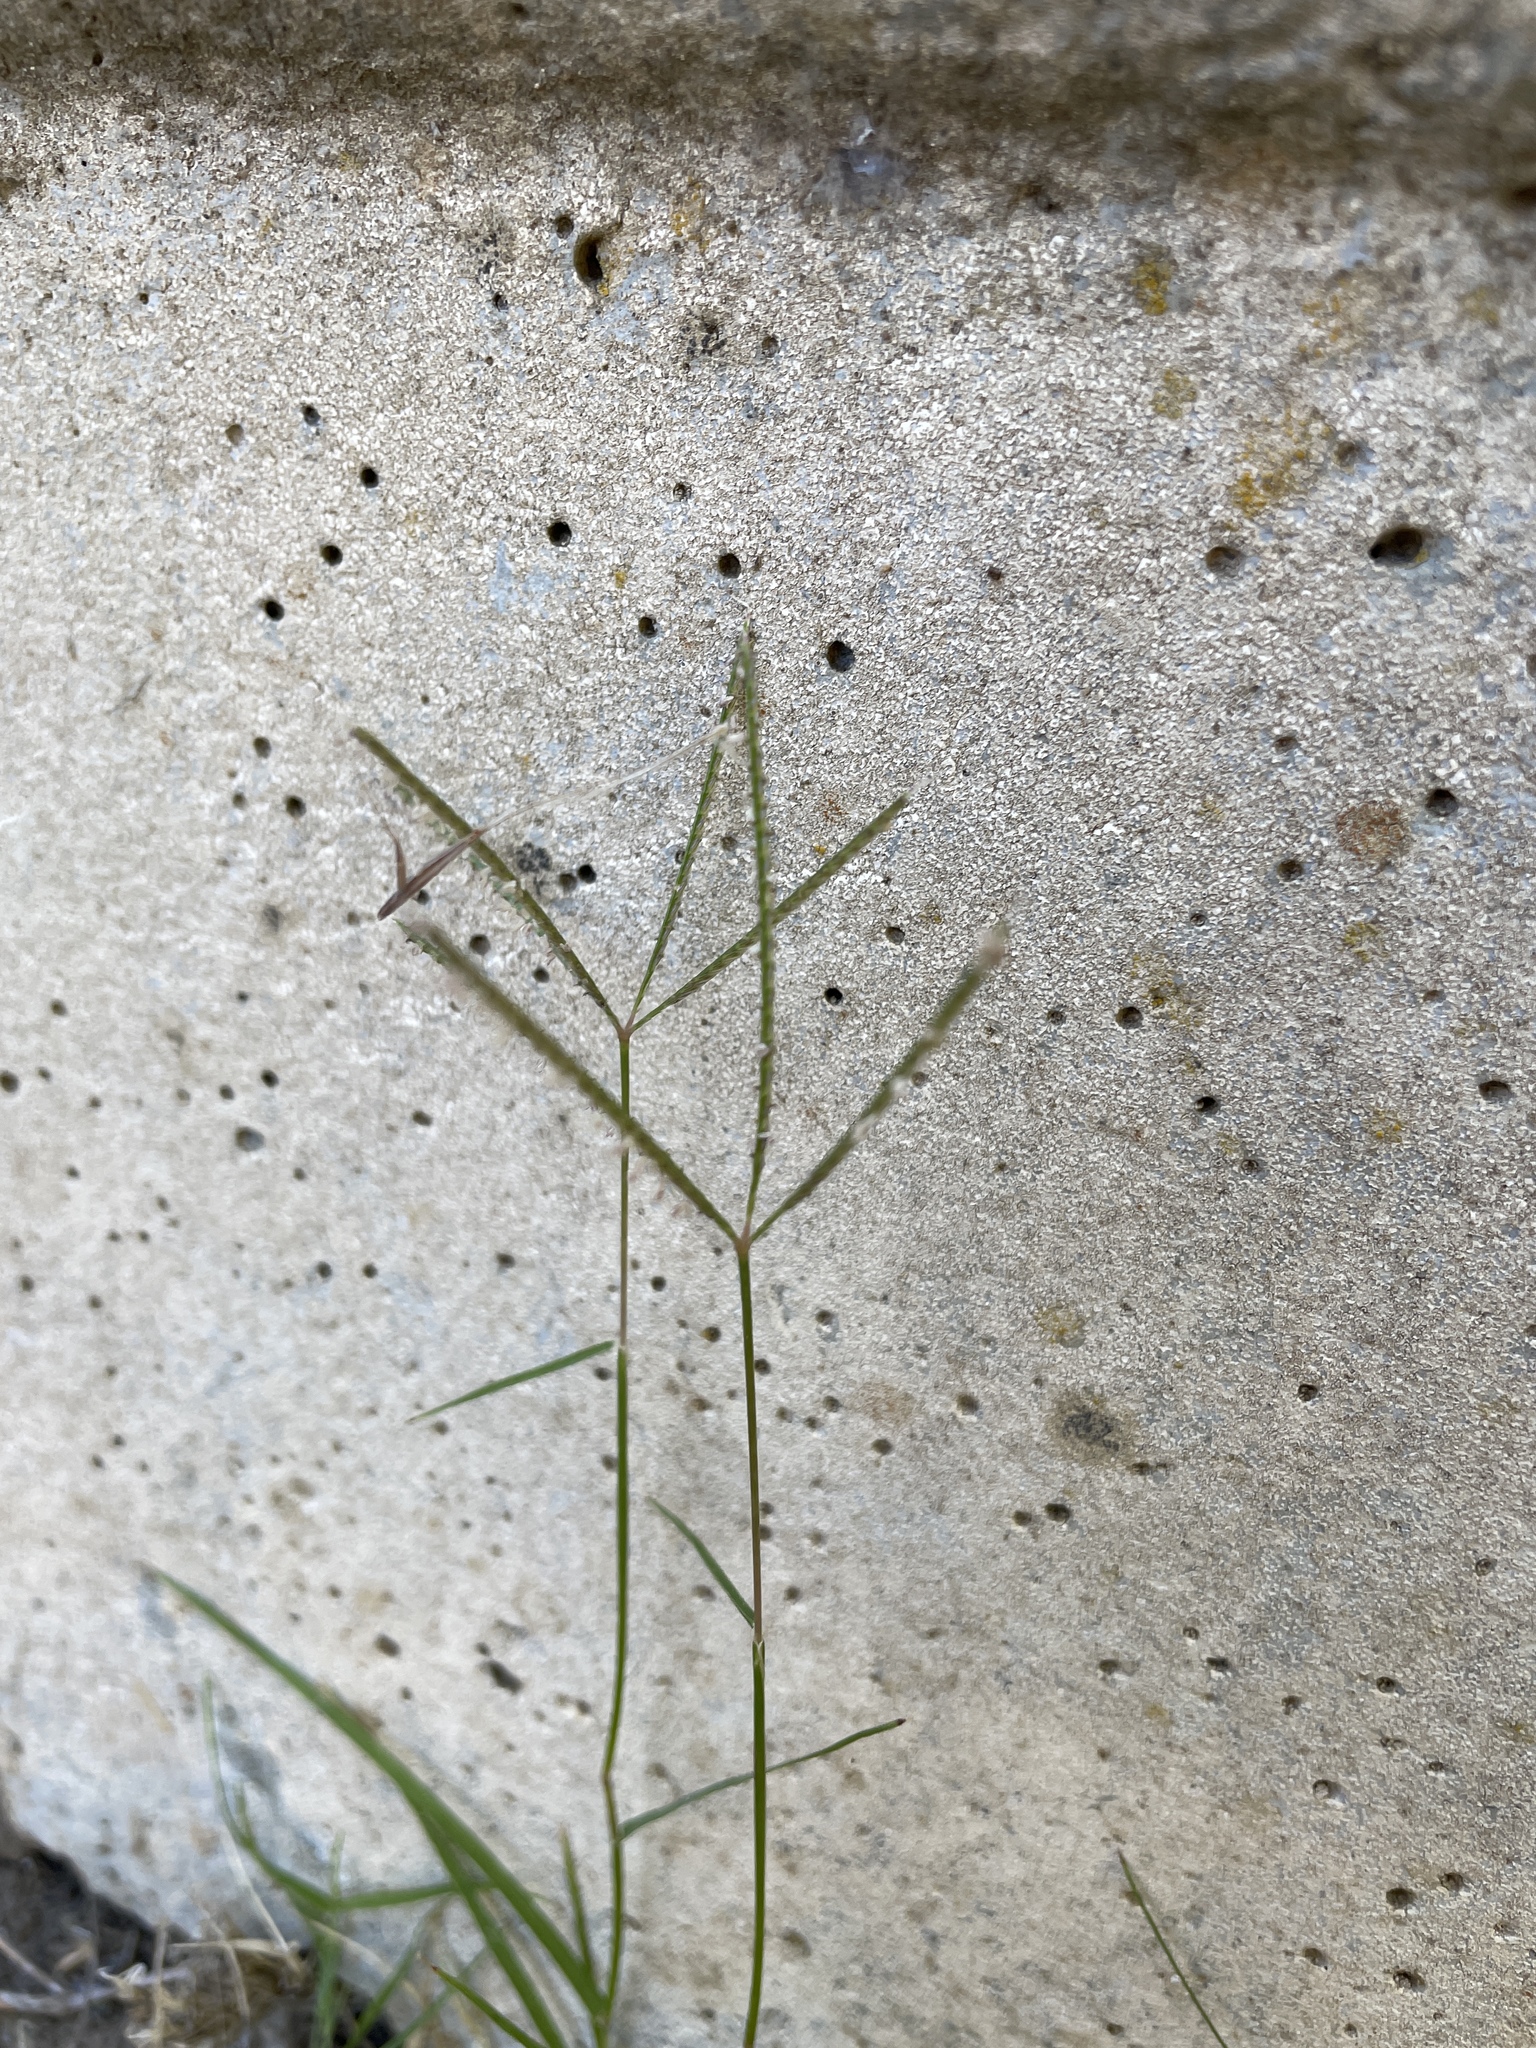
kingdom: Plantae
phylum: Tracheophyta
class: Liliopsida
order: Poales
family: Poaceae
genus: Cynodon
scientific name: Cynodon dactylon
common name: Bermuda grass
